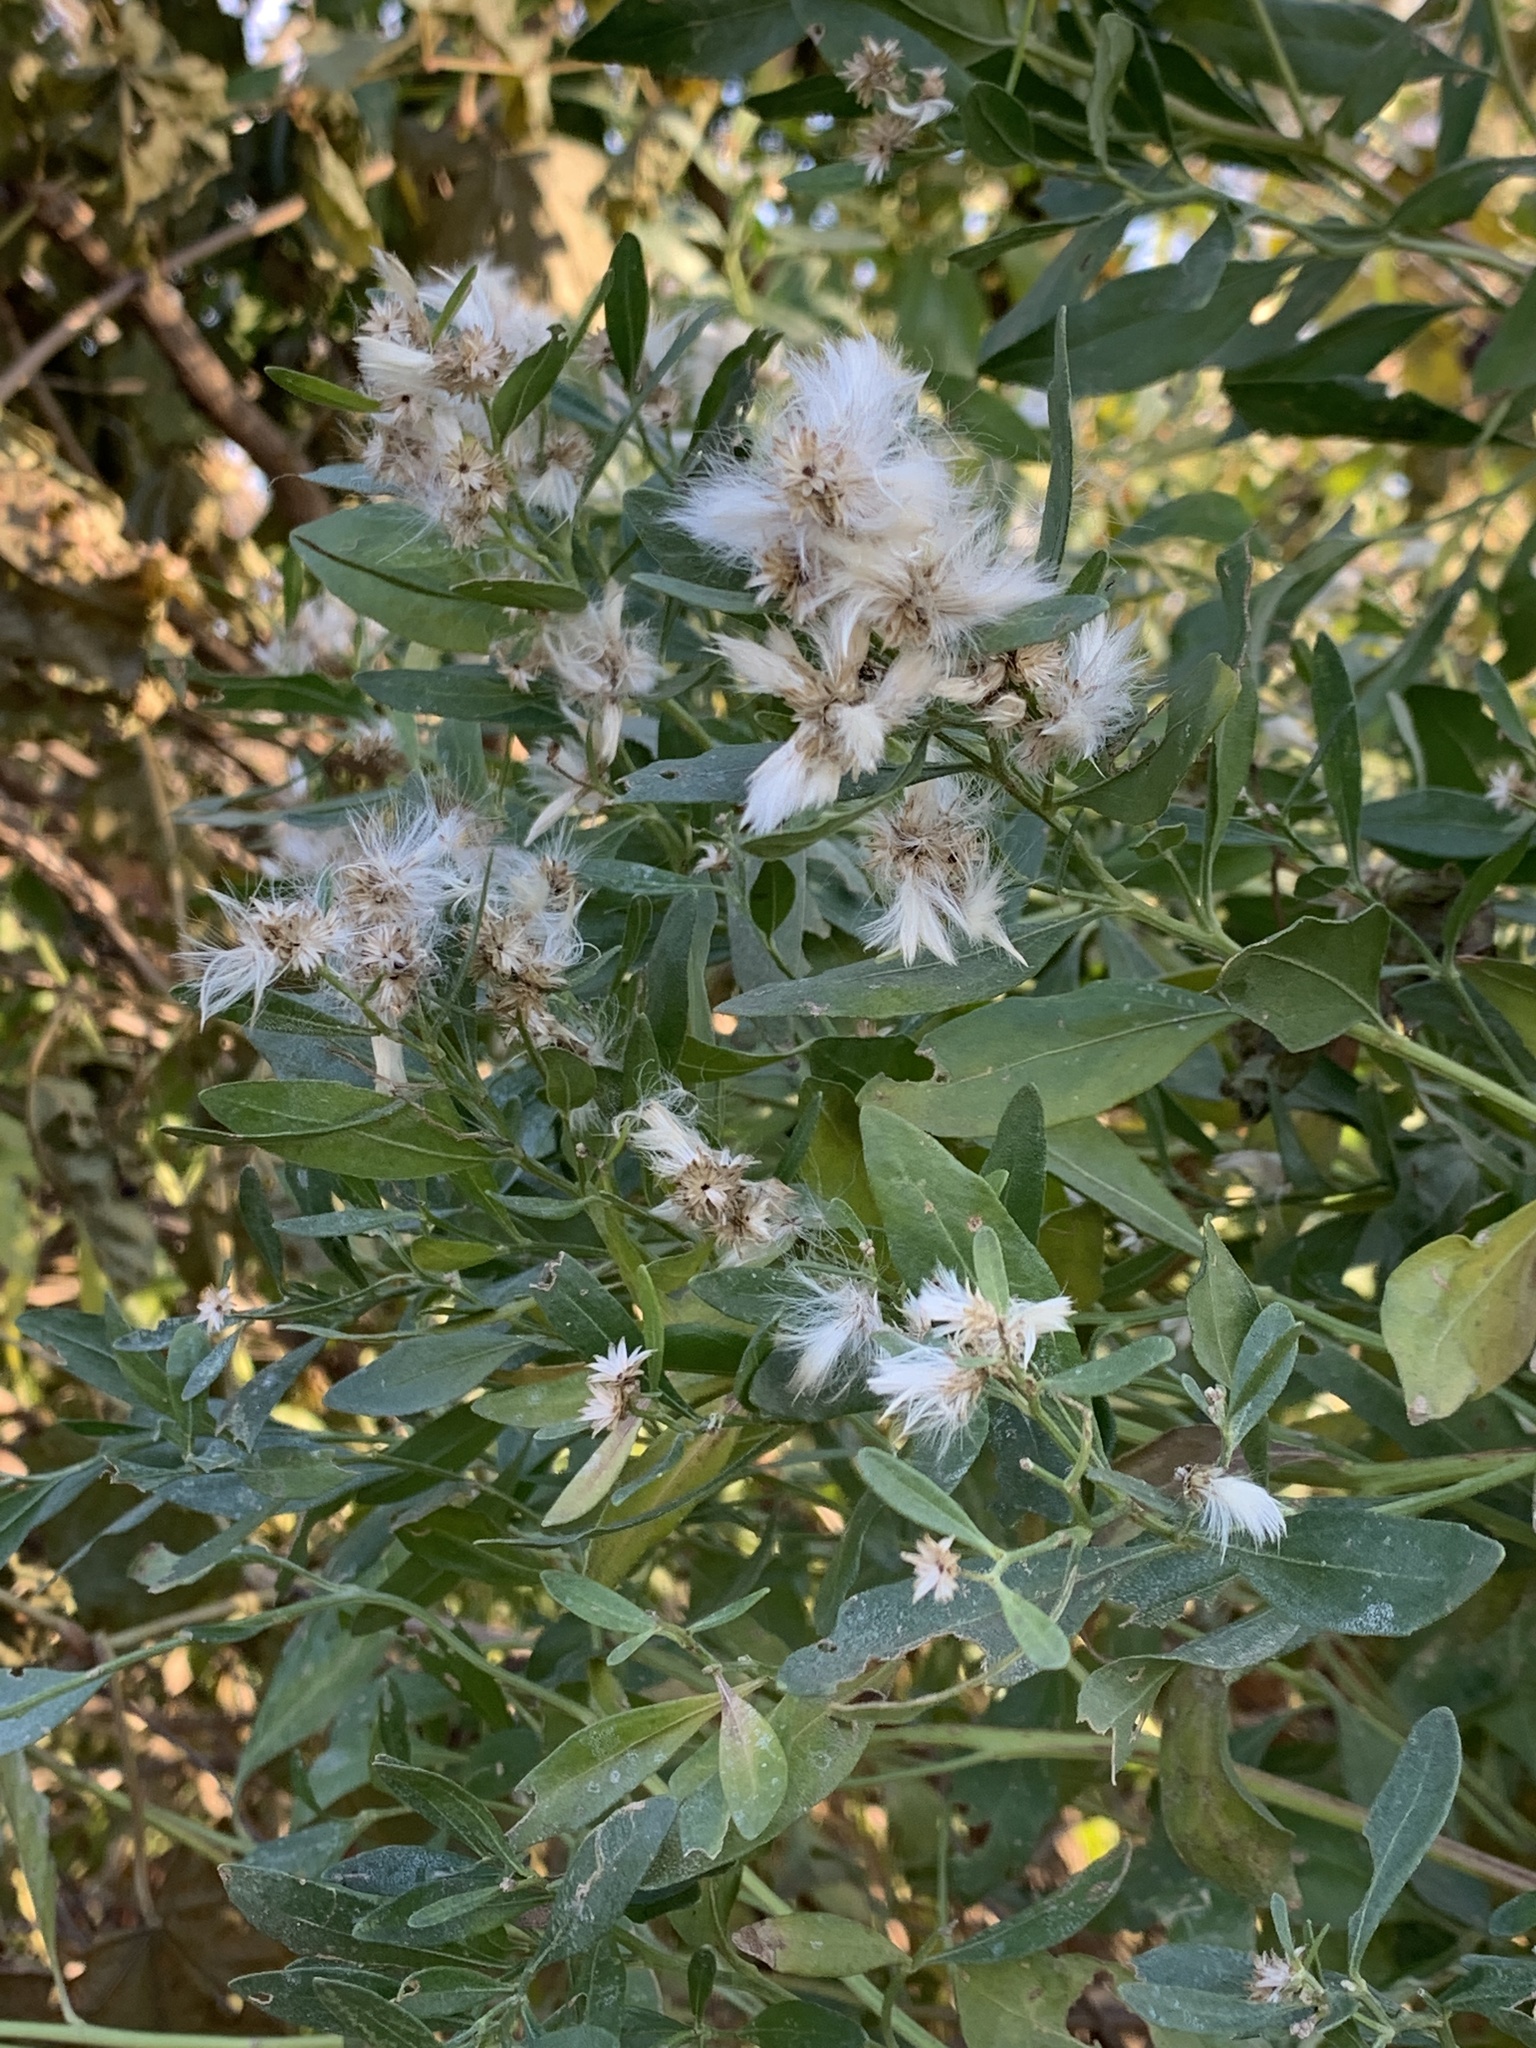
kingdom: Plantae
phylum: Tracheophyta
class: Magnoliopsida
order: Asterales
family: Asteraceae
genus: Baccharis
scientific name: Baccharis halimifolia
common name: Eastern baccharis
